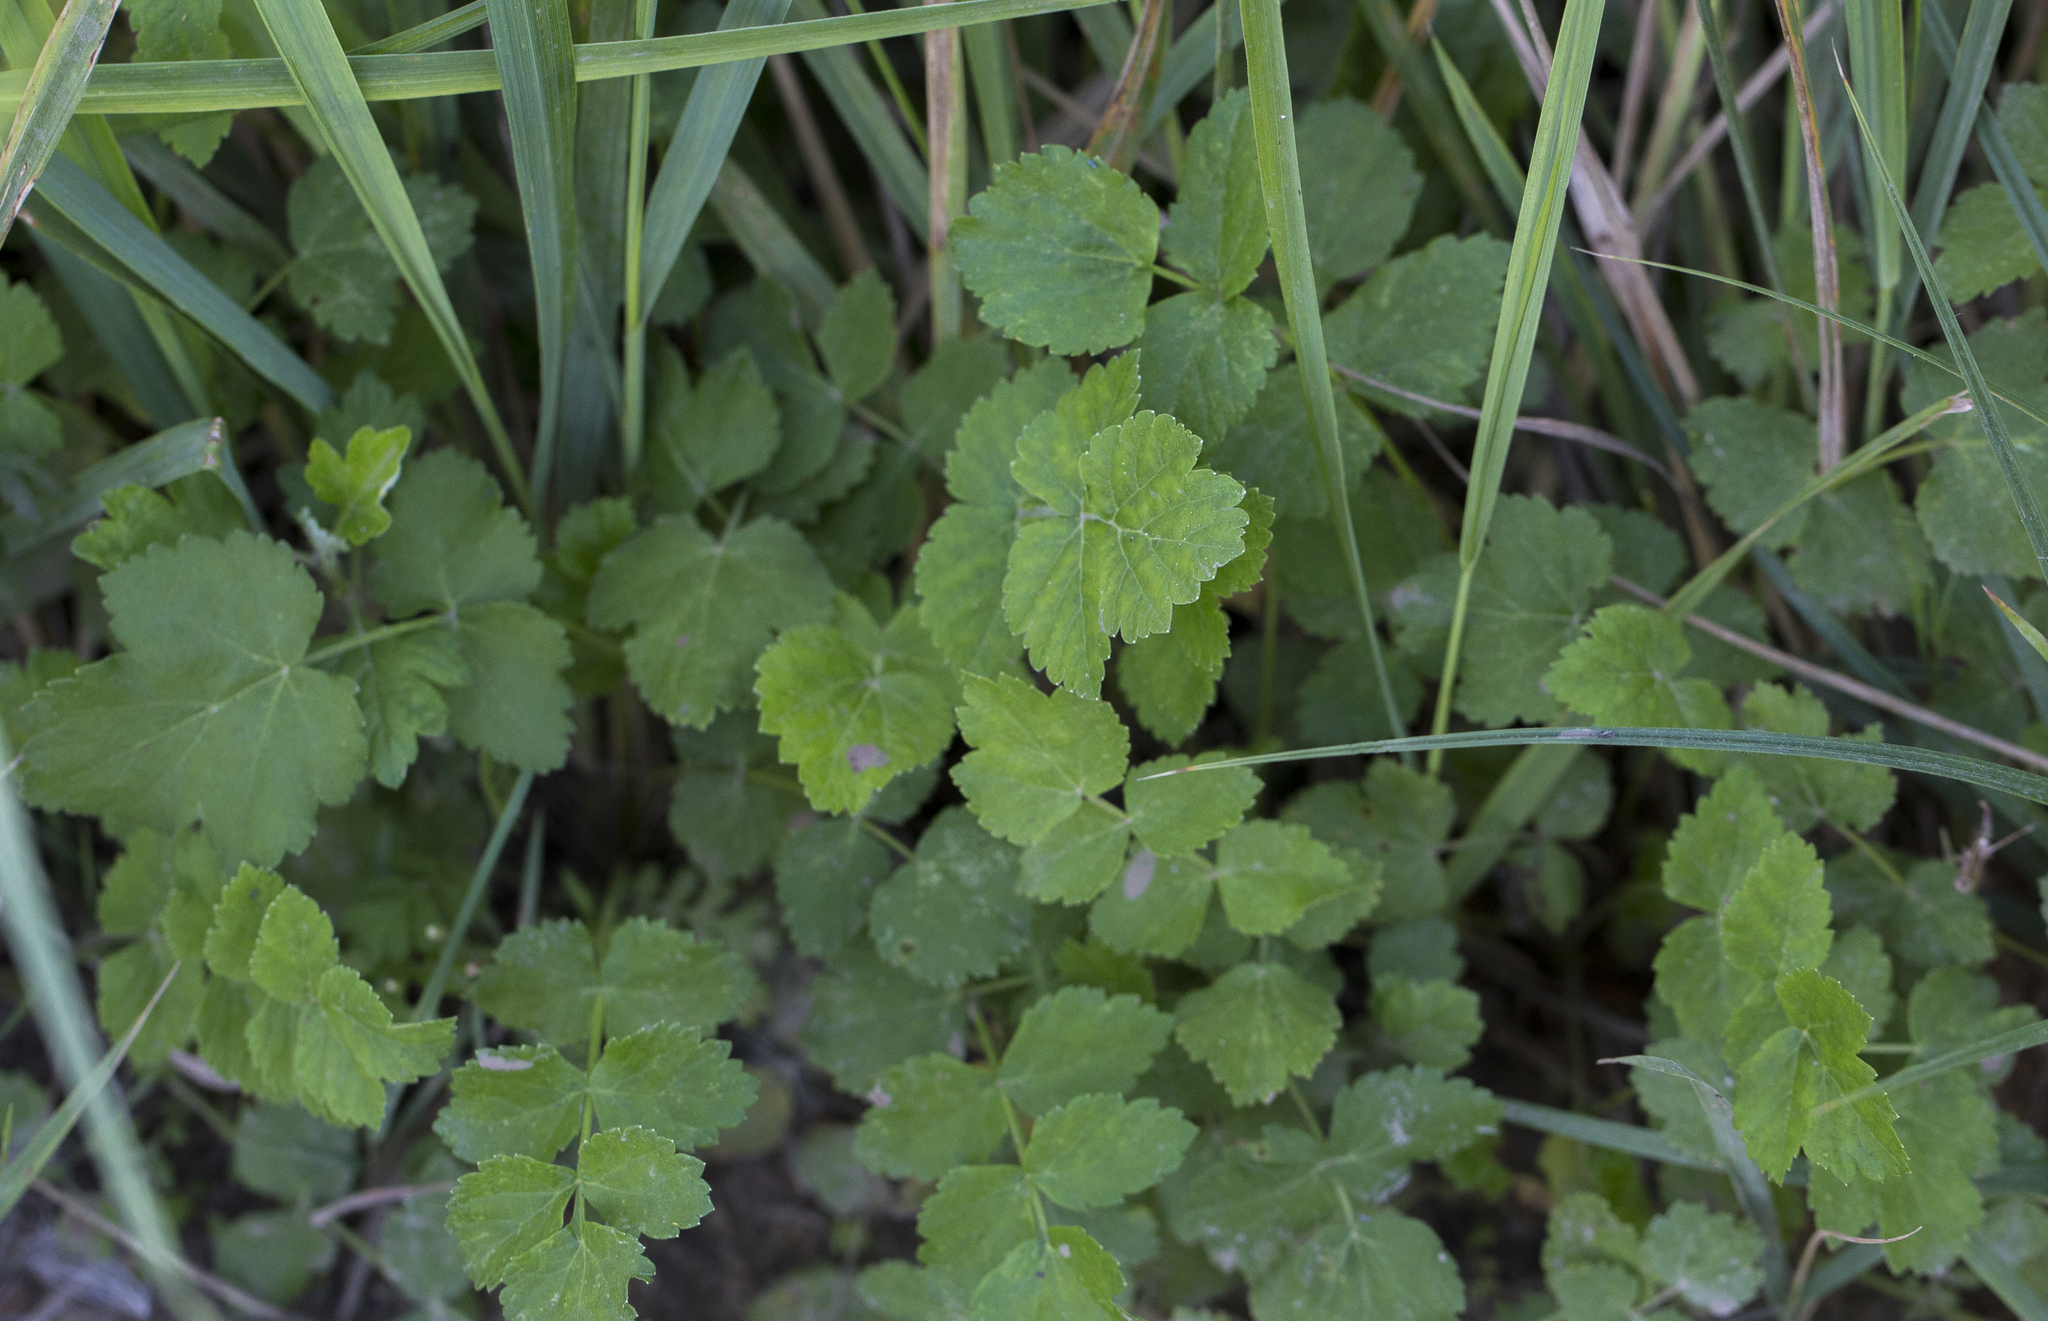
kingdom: Plantae
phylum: Tracheophyta
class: Magnoliopsida
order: Apiales
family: Apiaceae
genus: Pimpinella
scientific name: Pimpinella saxifraga
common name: Burnet-saxifrage
